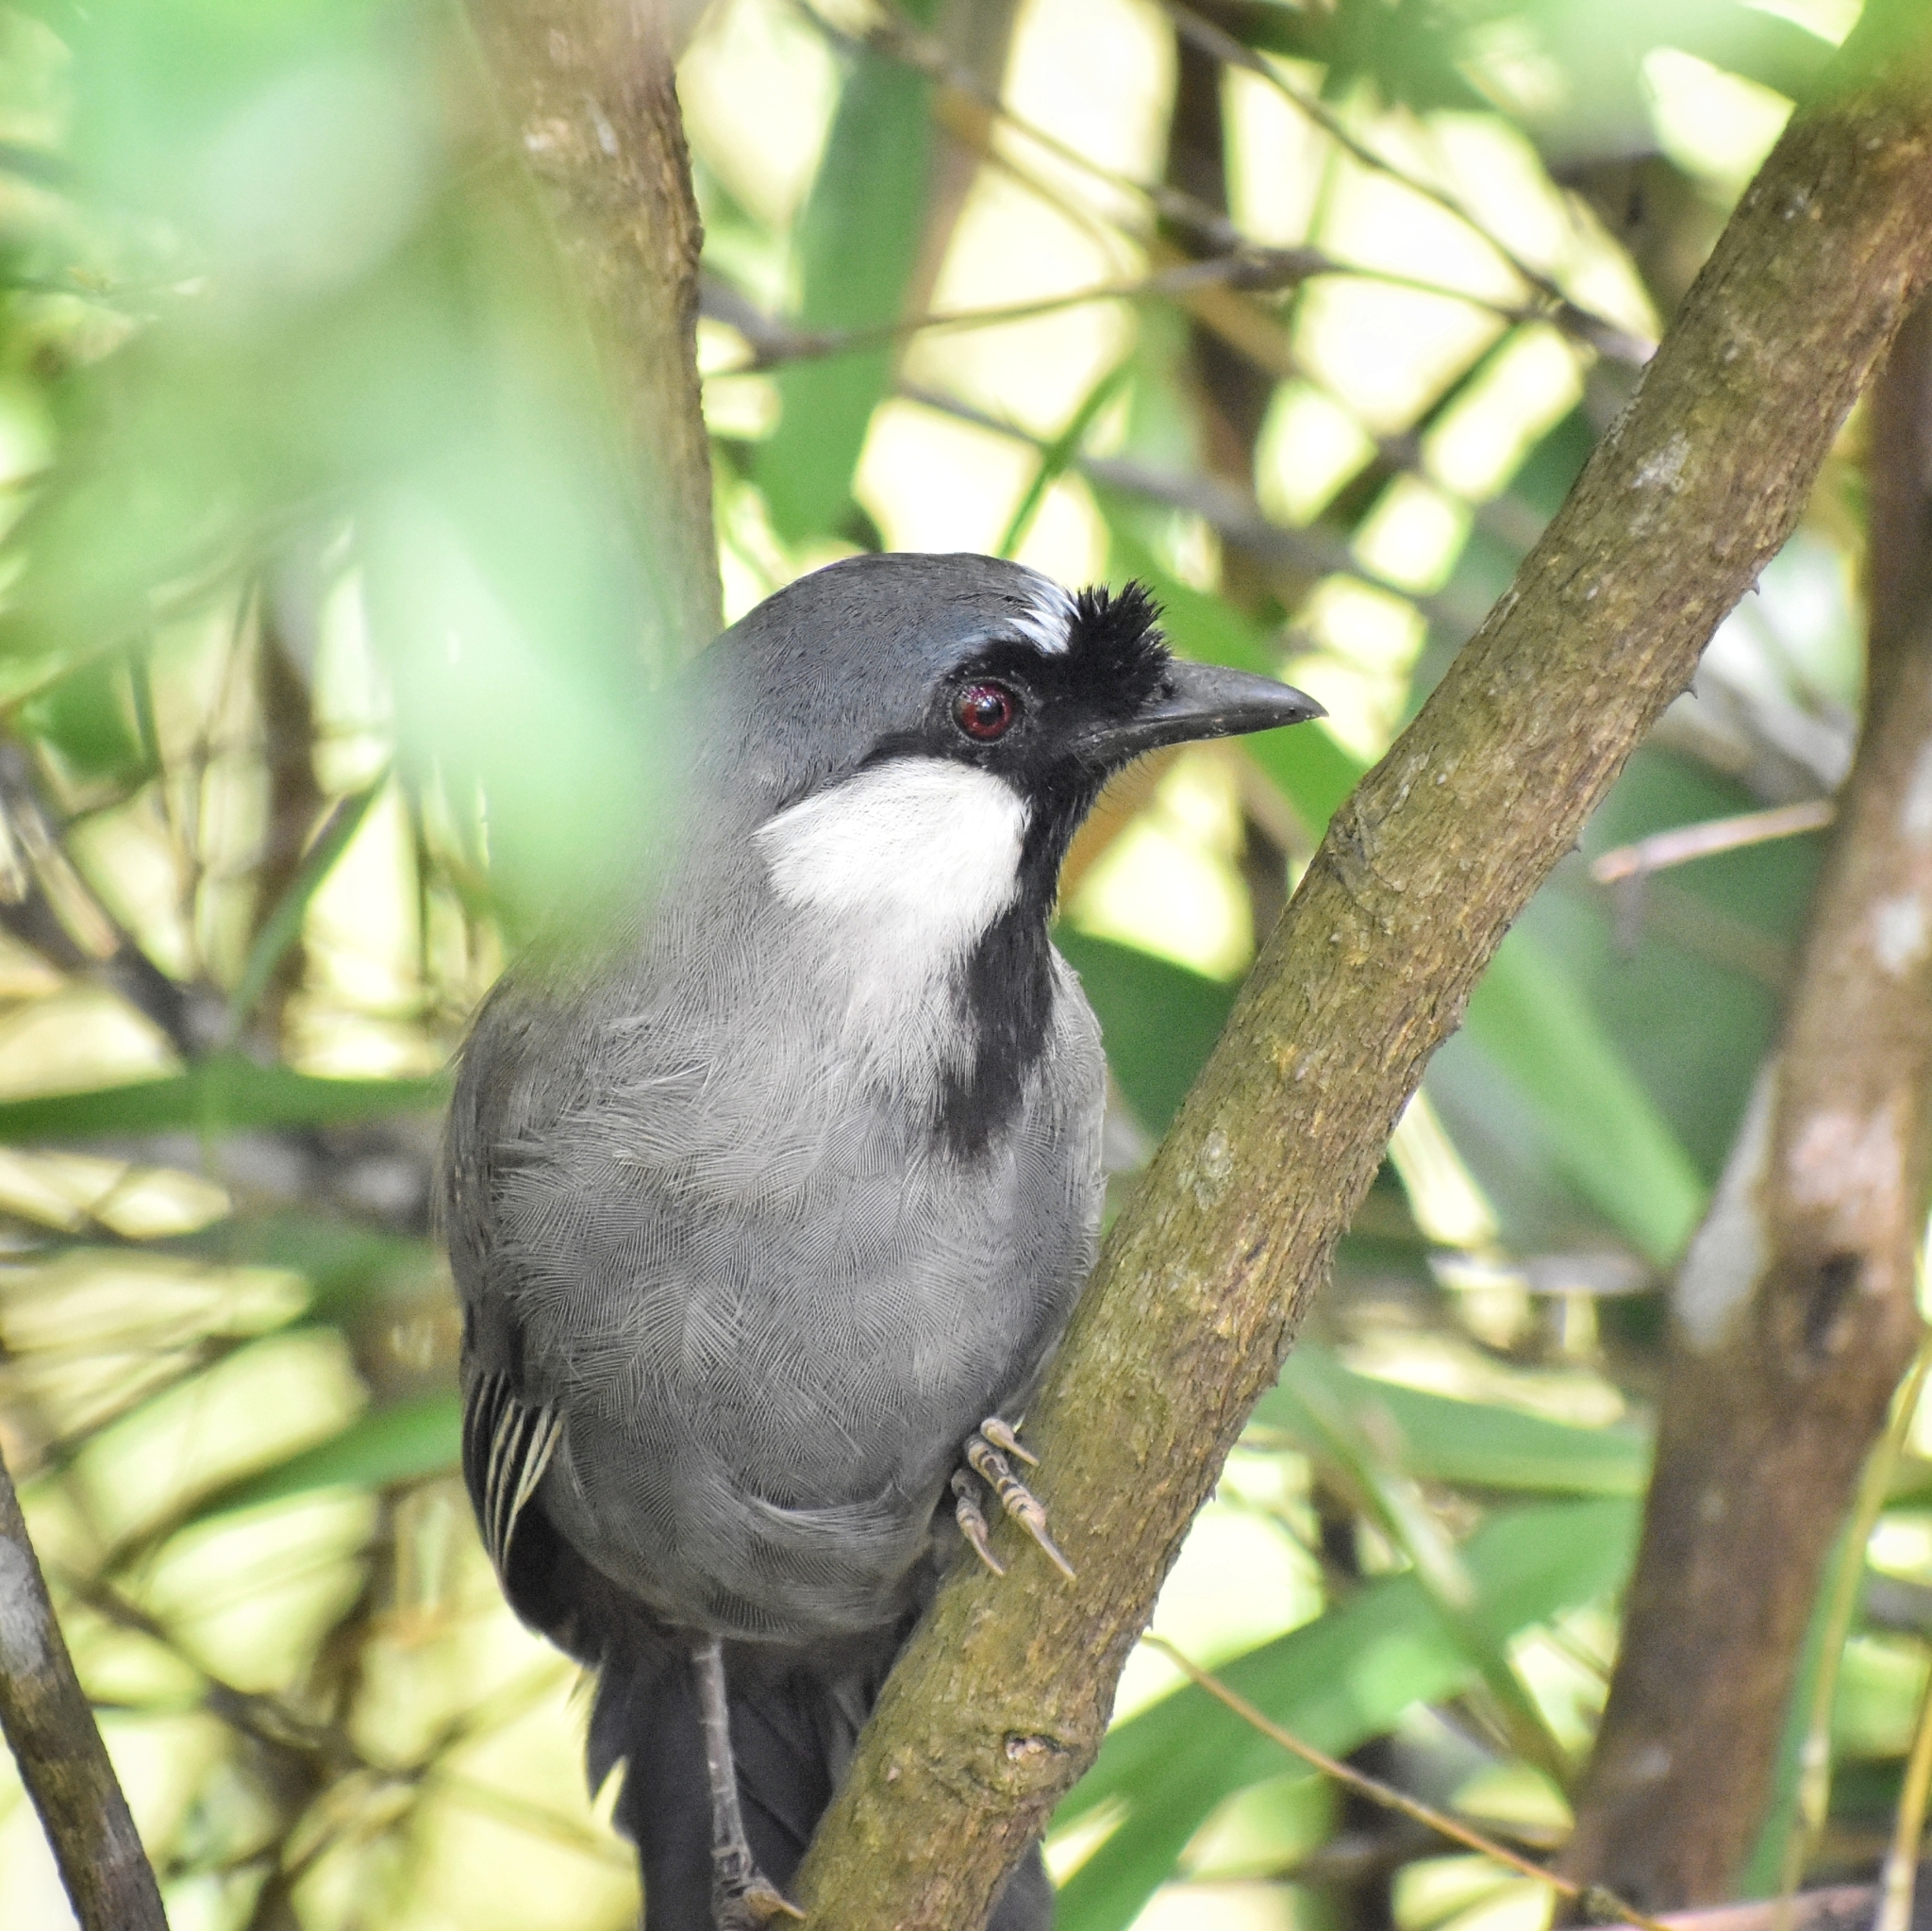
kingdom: Animalia
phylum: Chordata
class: Aves
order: Passeriformes
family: Leiothrichidae
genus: Garrulax
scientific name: Garrulax chinensis
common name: Black-throated laughingthrush
